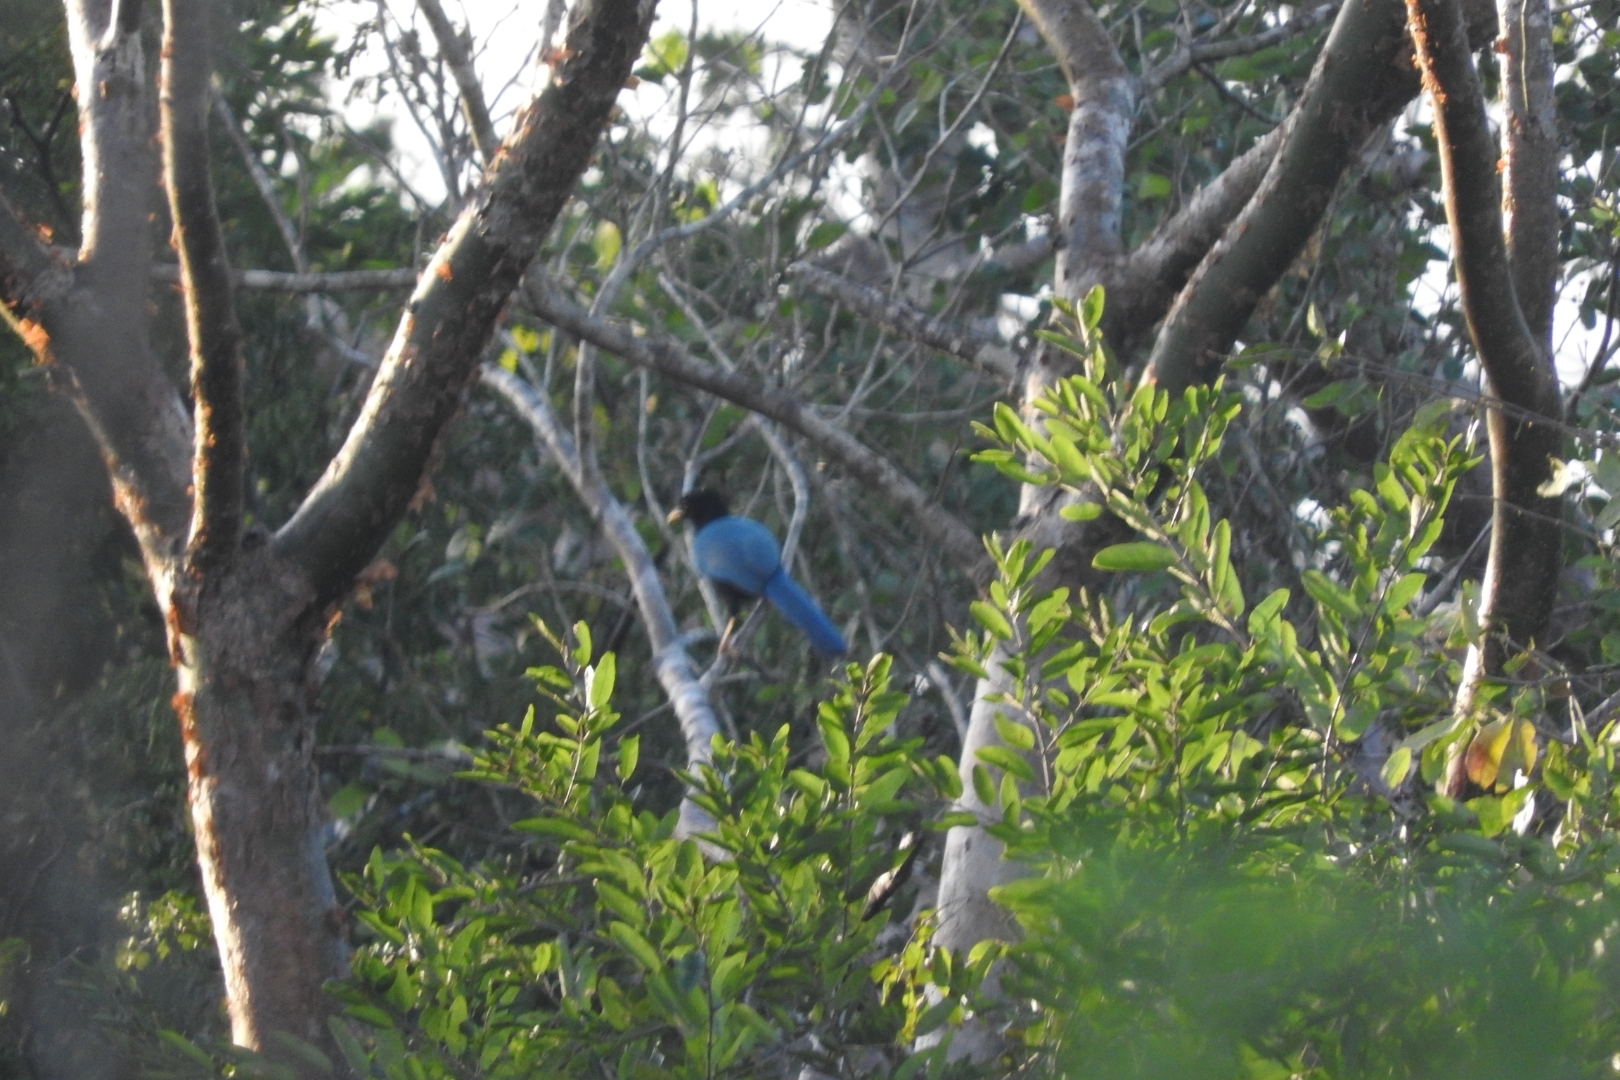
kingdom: Animalia
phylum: Chordata
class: Aves
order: Passeriformes
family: Corvidae
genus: Cyanocorax
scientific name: Cyanocorax yucatanicus
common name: Yucatan jay
